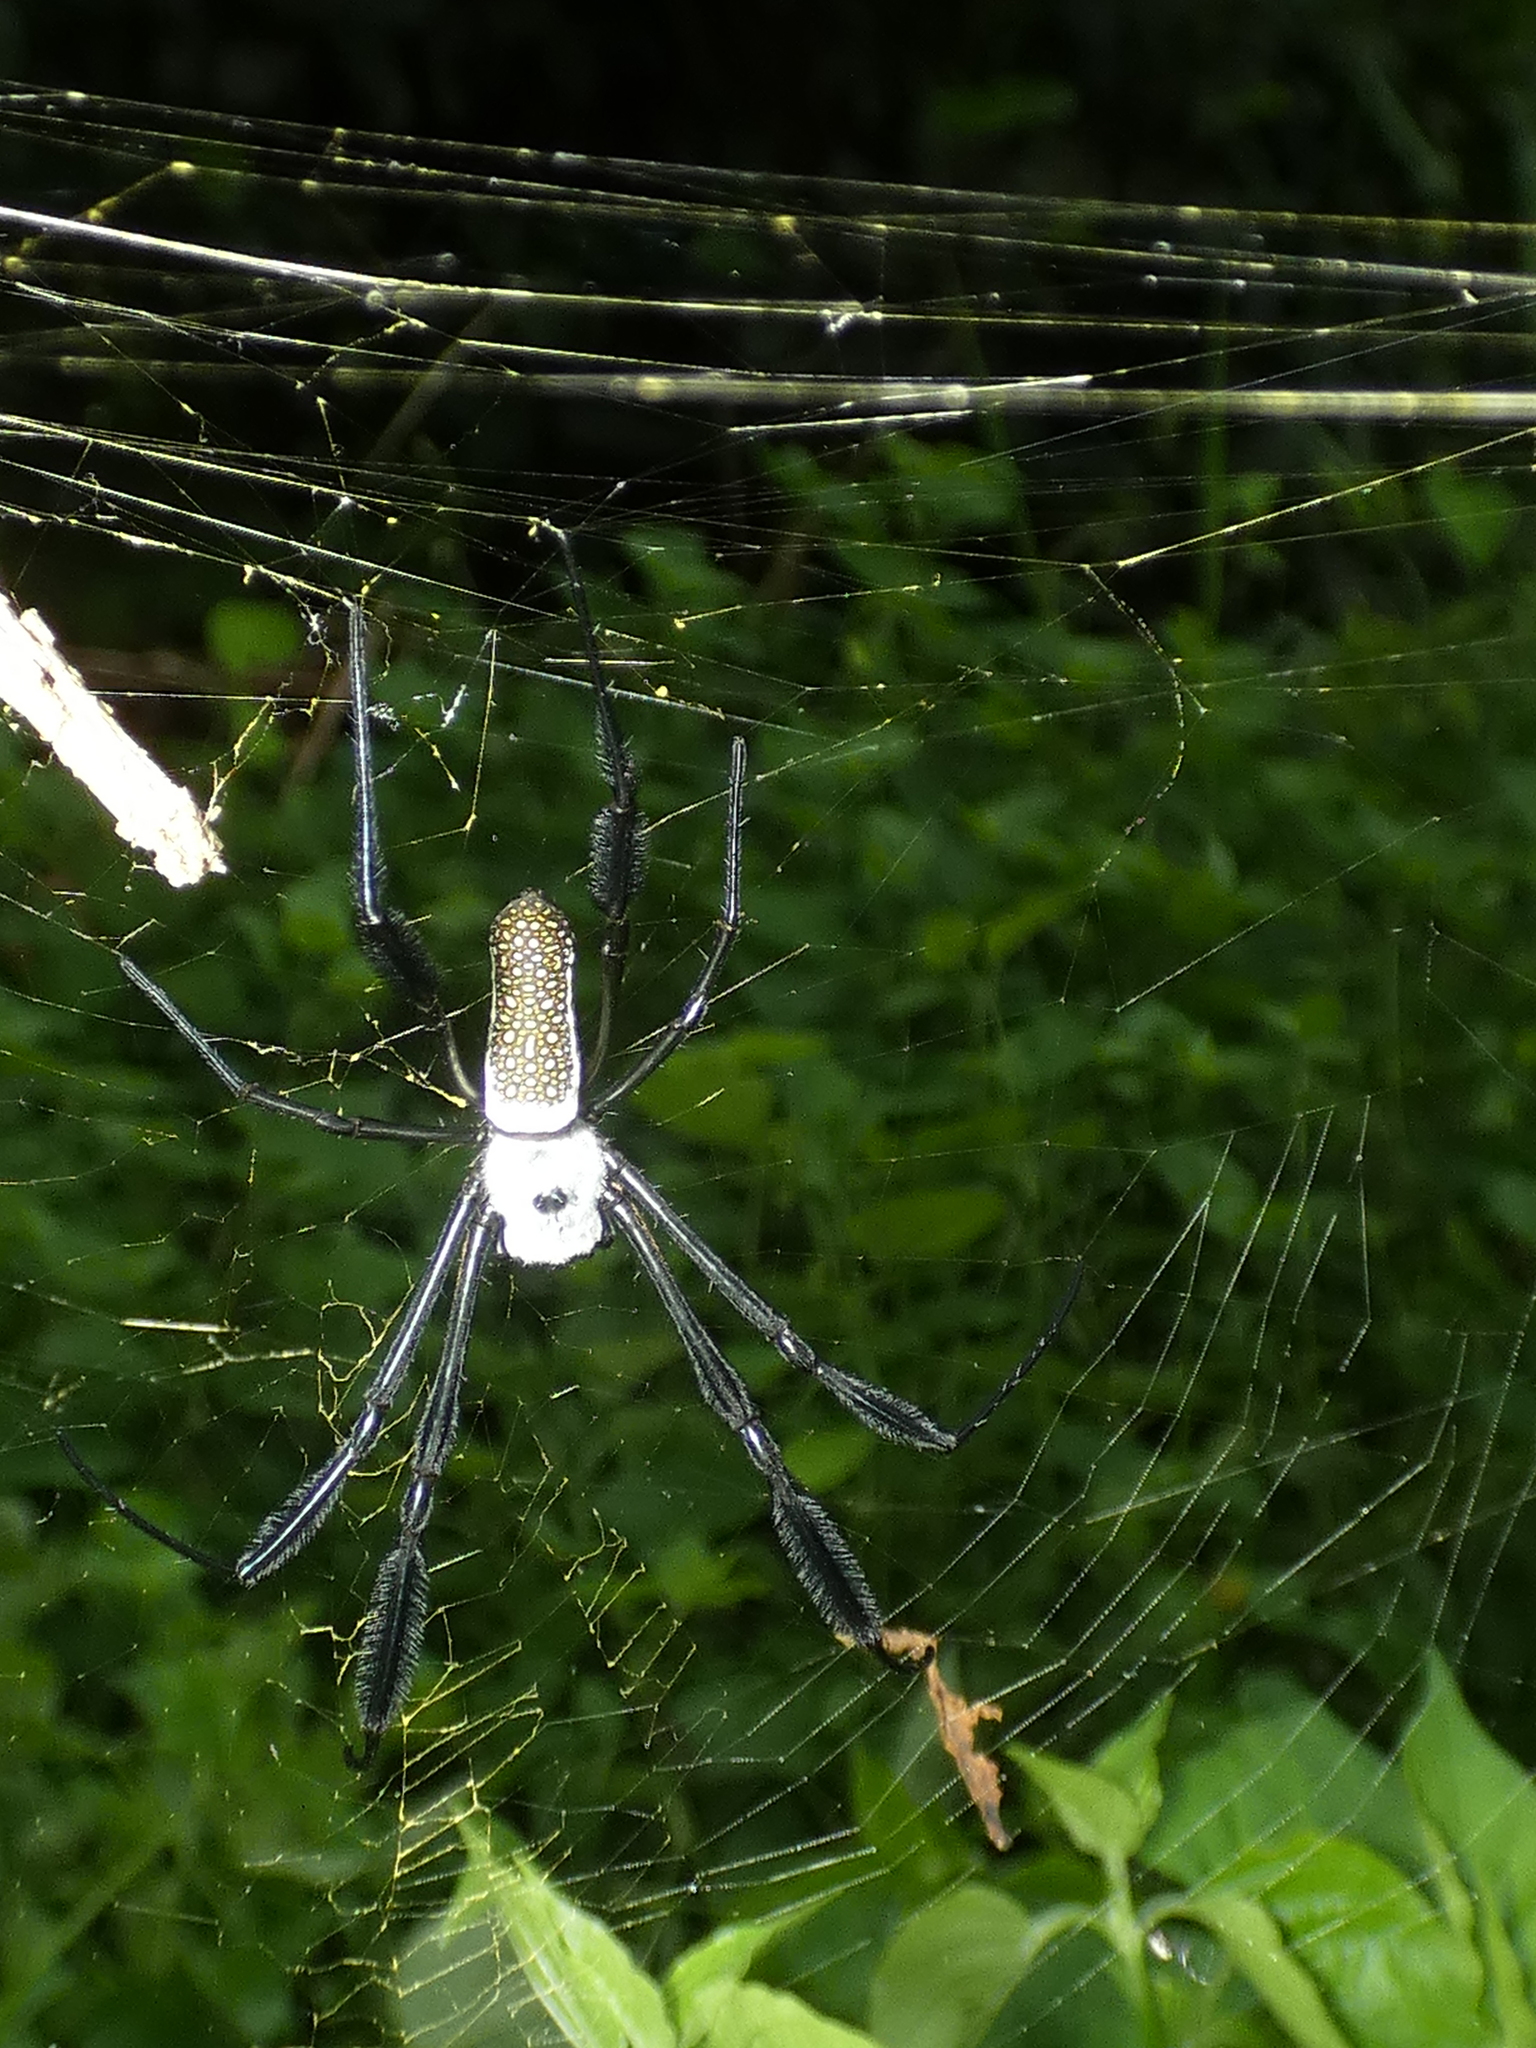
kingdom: Animalia
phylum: Arthropoda
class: Arachnida
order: Araneae
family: Araneidae
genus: Trichonephila
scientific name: Trichonephila clavipes
